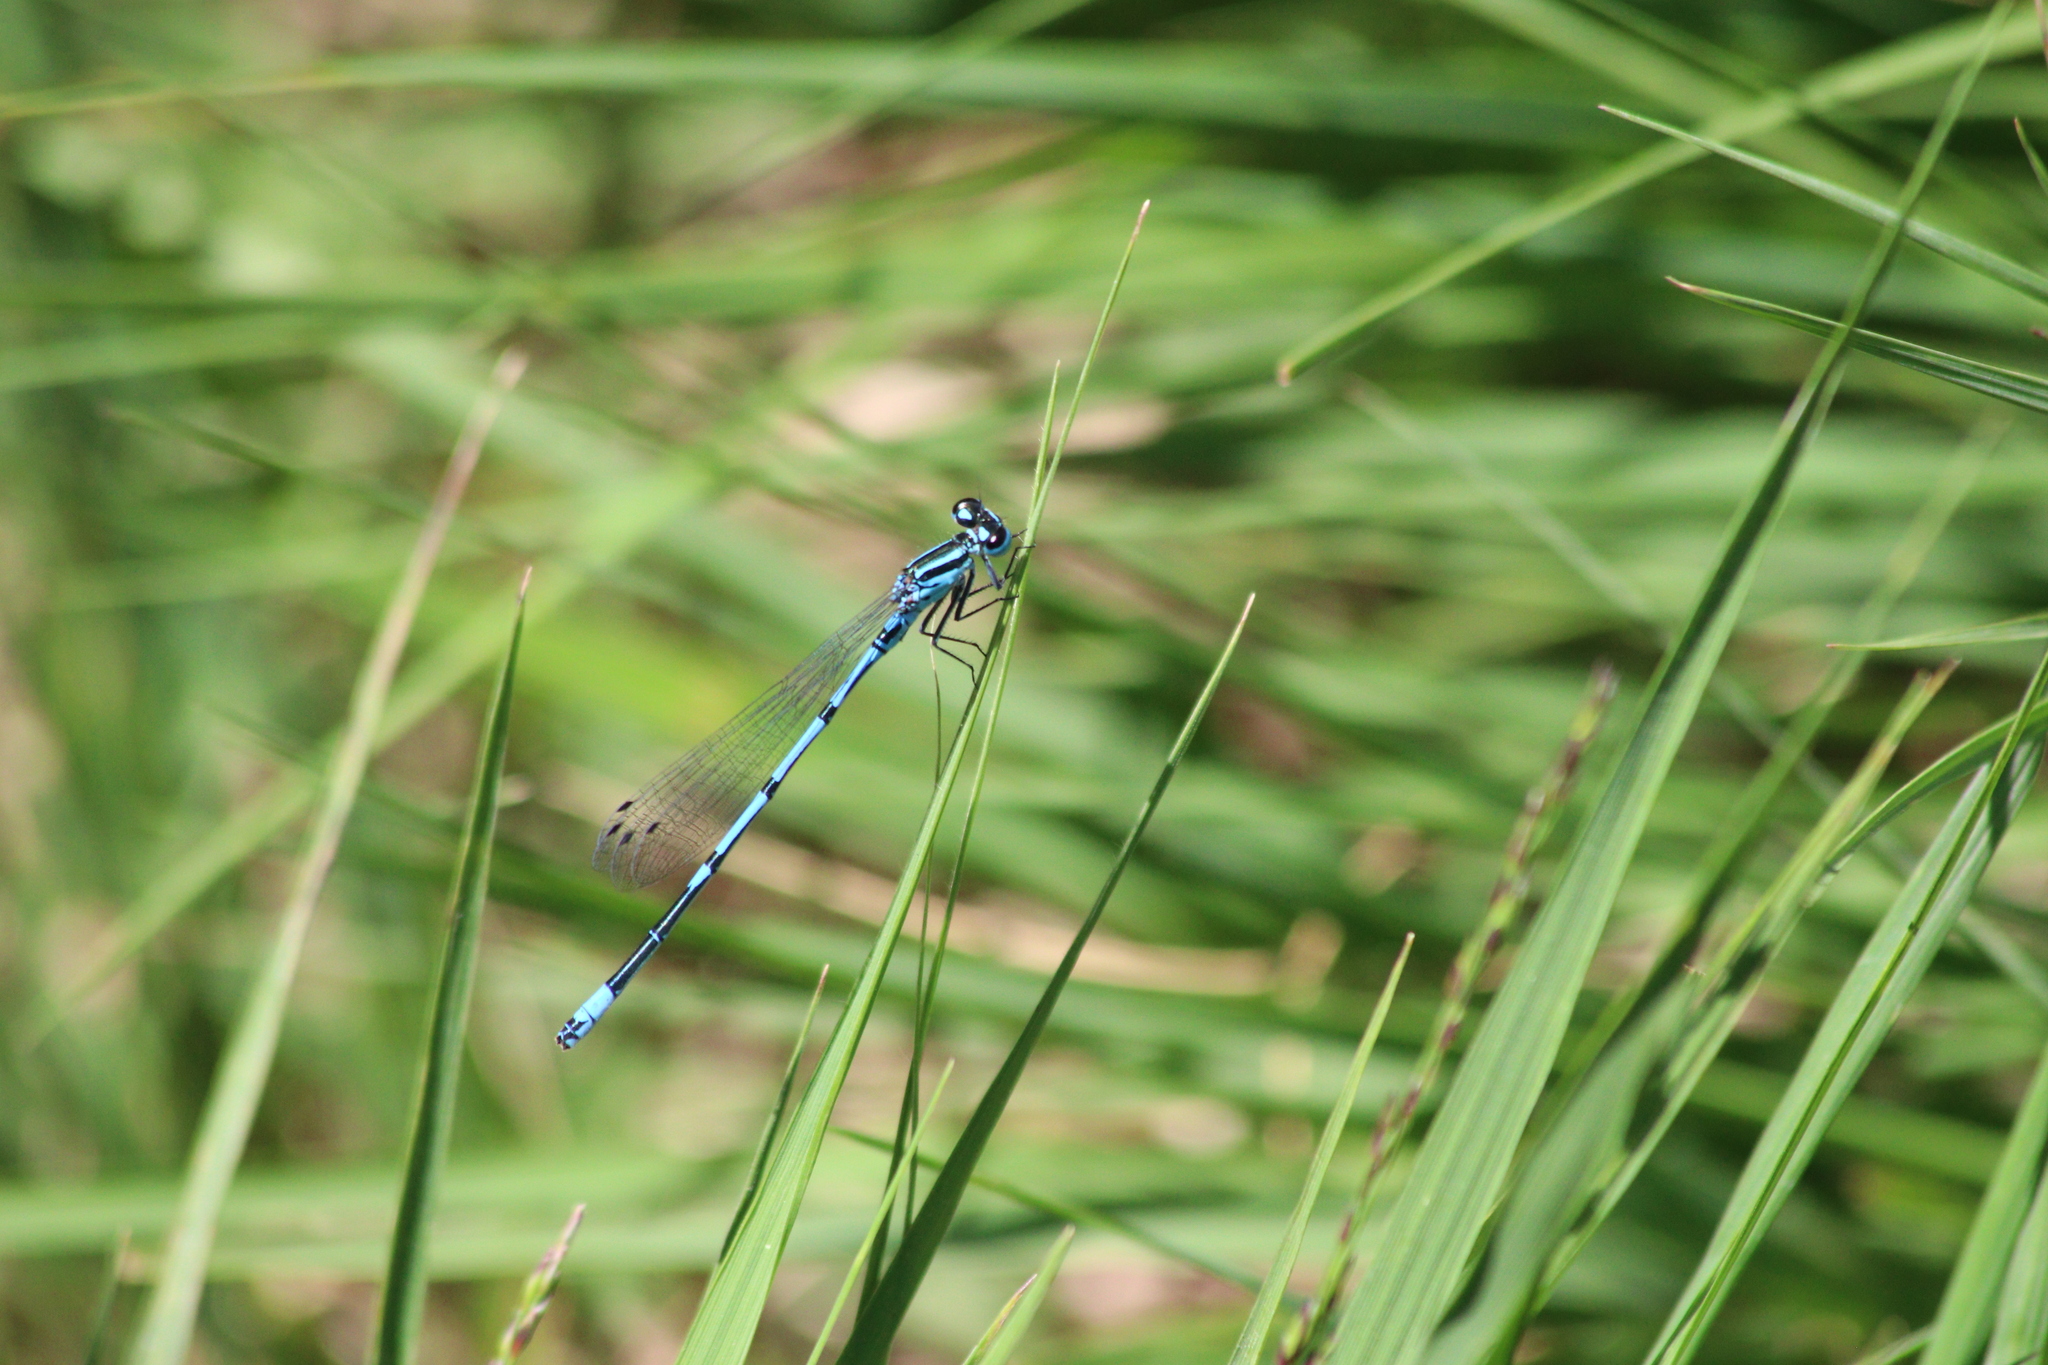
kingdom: Animalia
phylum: Arthropoda
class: Insecta
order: Odonata
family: Coenagrionidae
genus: Coenagrion
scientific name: Coenagrion puella
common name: Azure damselfly
